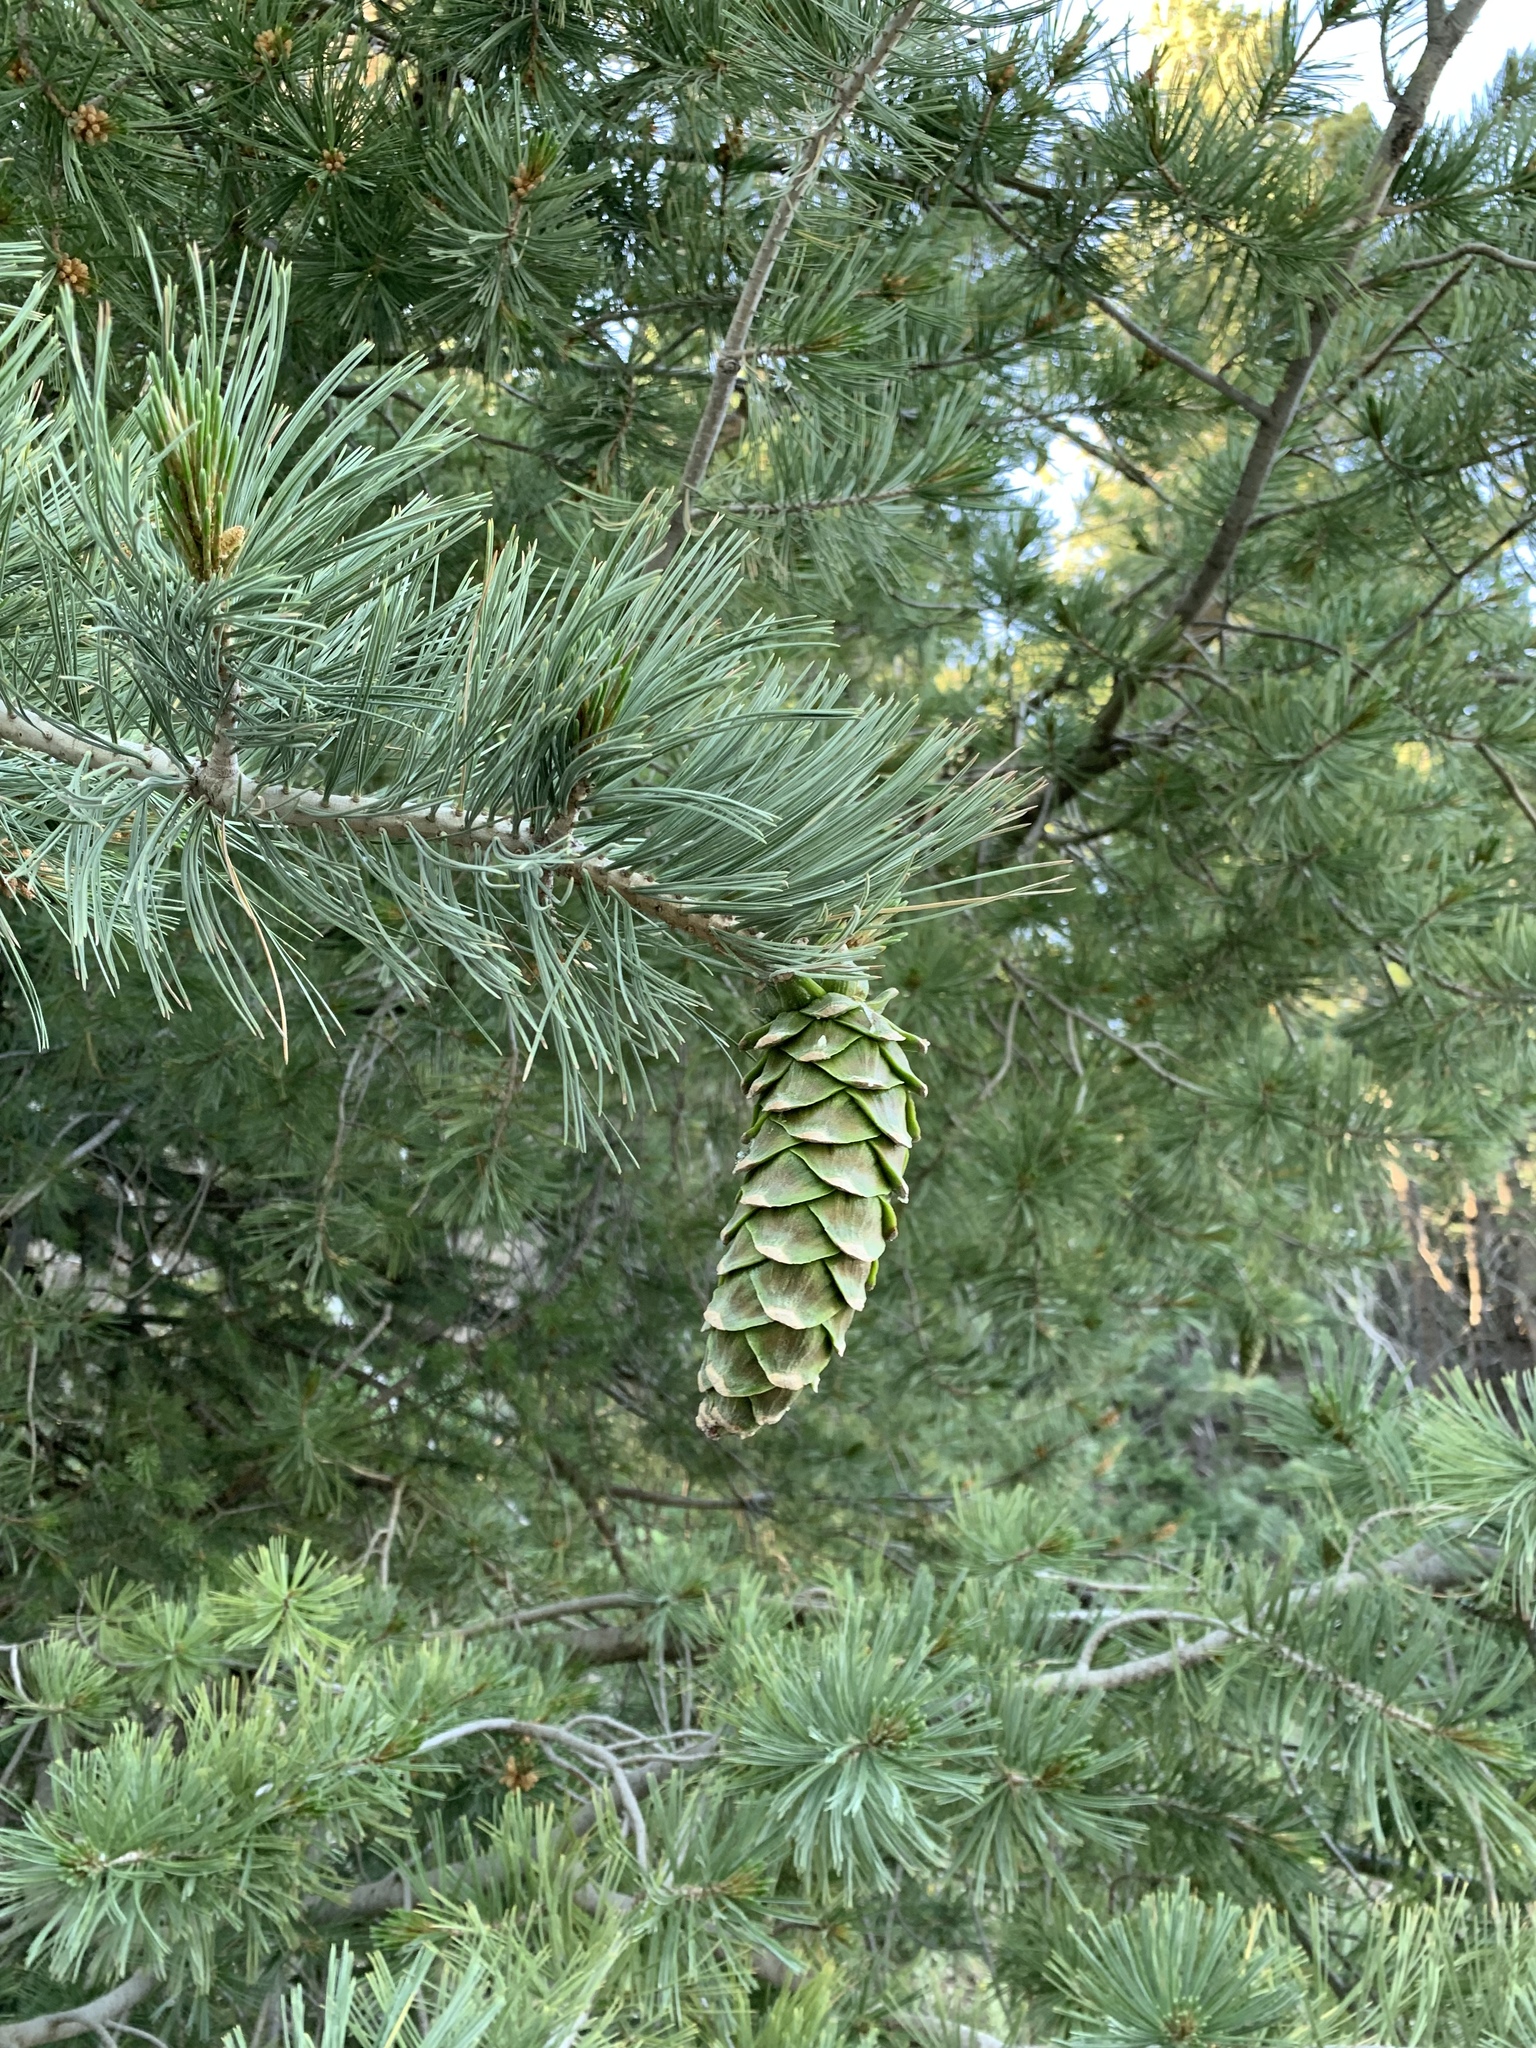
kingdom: Plantae
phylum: Tracheophyta
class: Pinopsida
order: Pinales
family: Pinaceae
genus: Pinus
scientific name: Pinus strobiformis
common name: Southwestern white pine
